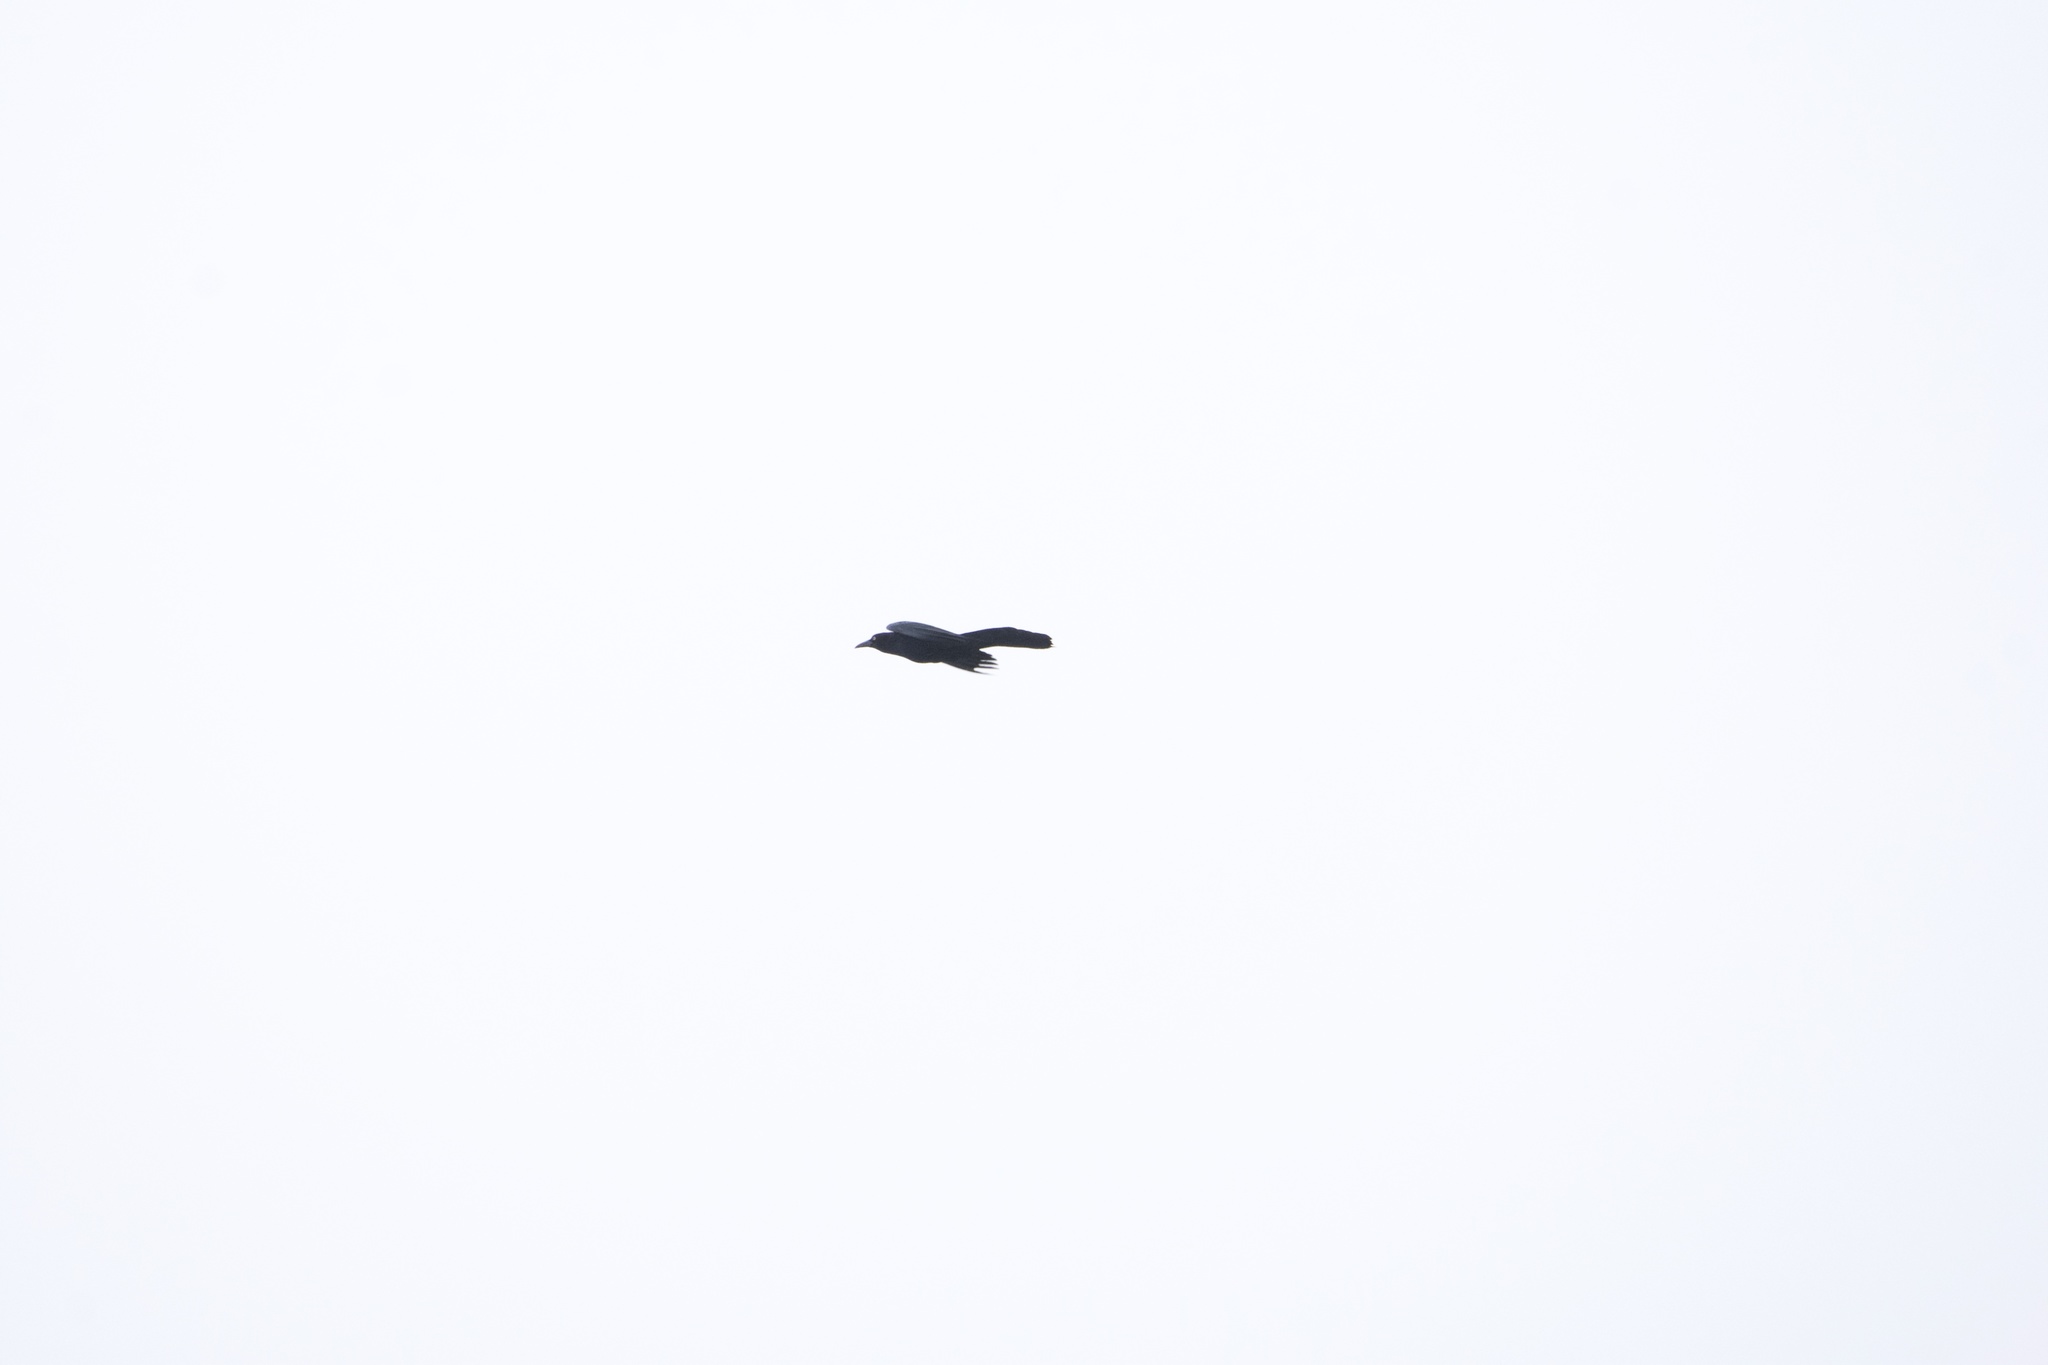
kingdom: Animalia
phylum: Chordata
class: Aves
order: Passeriformes
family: Icteridae
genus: Quiscalus
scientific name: Quiscalus mexicanus
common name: Great-tailed grackle
